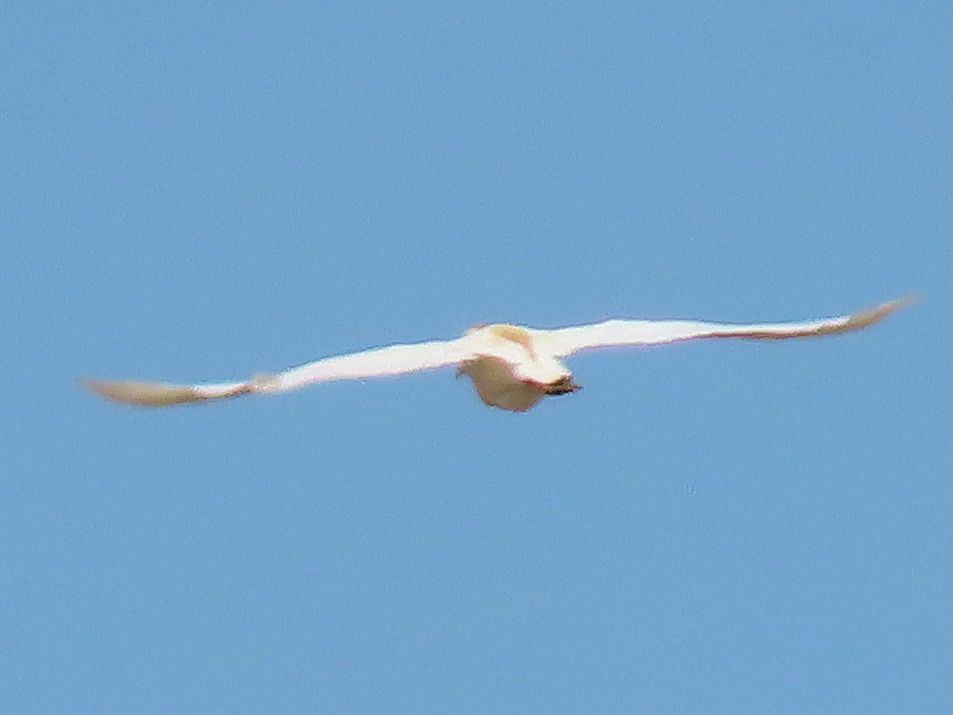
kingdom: Animalia
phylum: Chordata
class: Aves
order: Pelecaniformes
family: Ardeidae
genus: Bubulcus
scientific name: Bubulcus ibis
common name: Cattle egret
